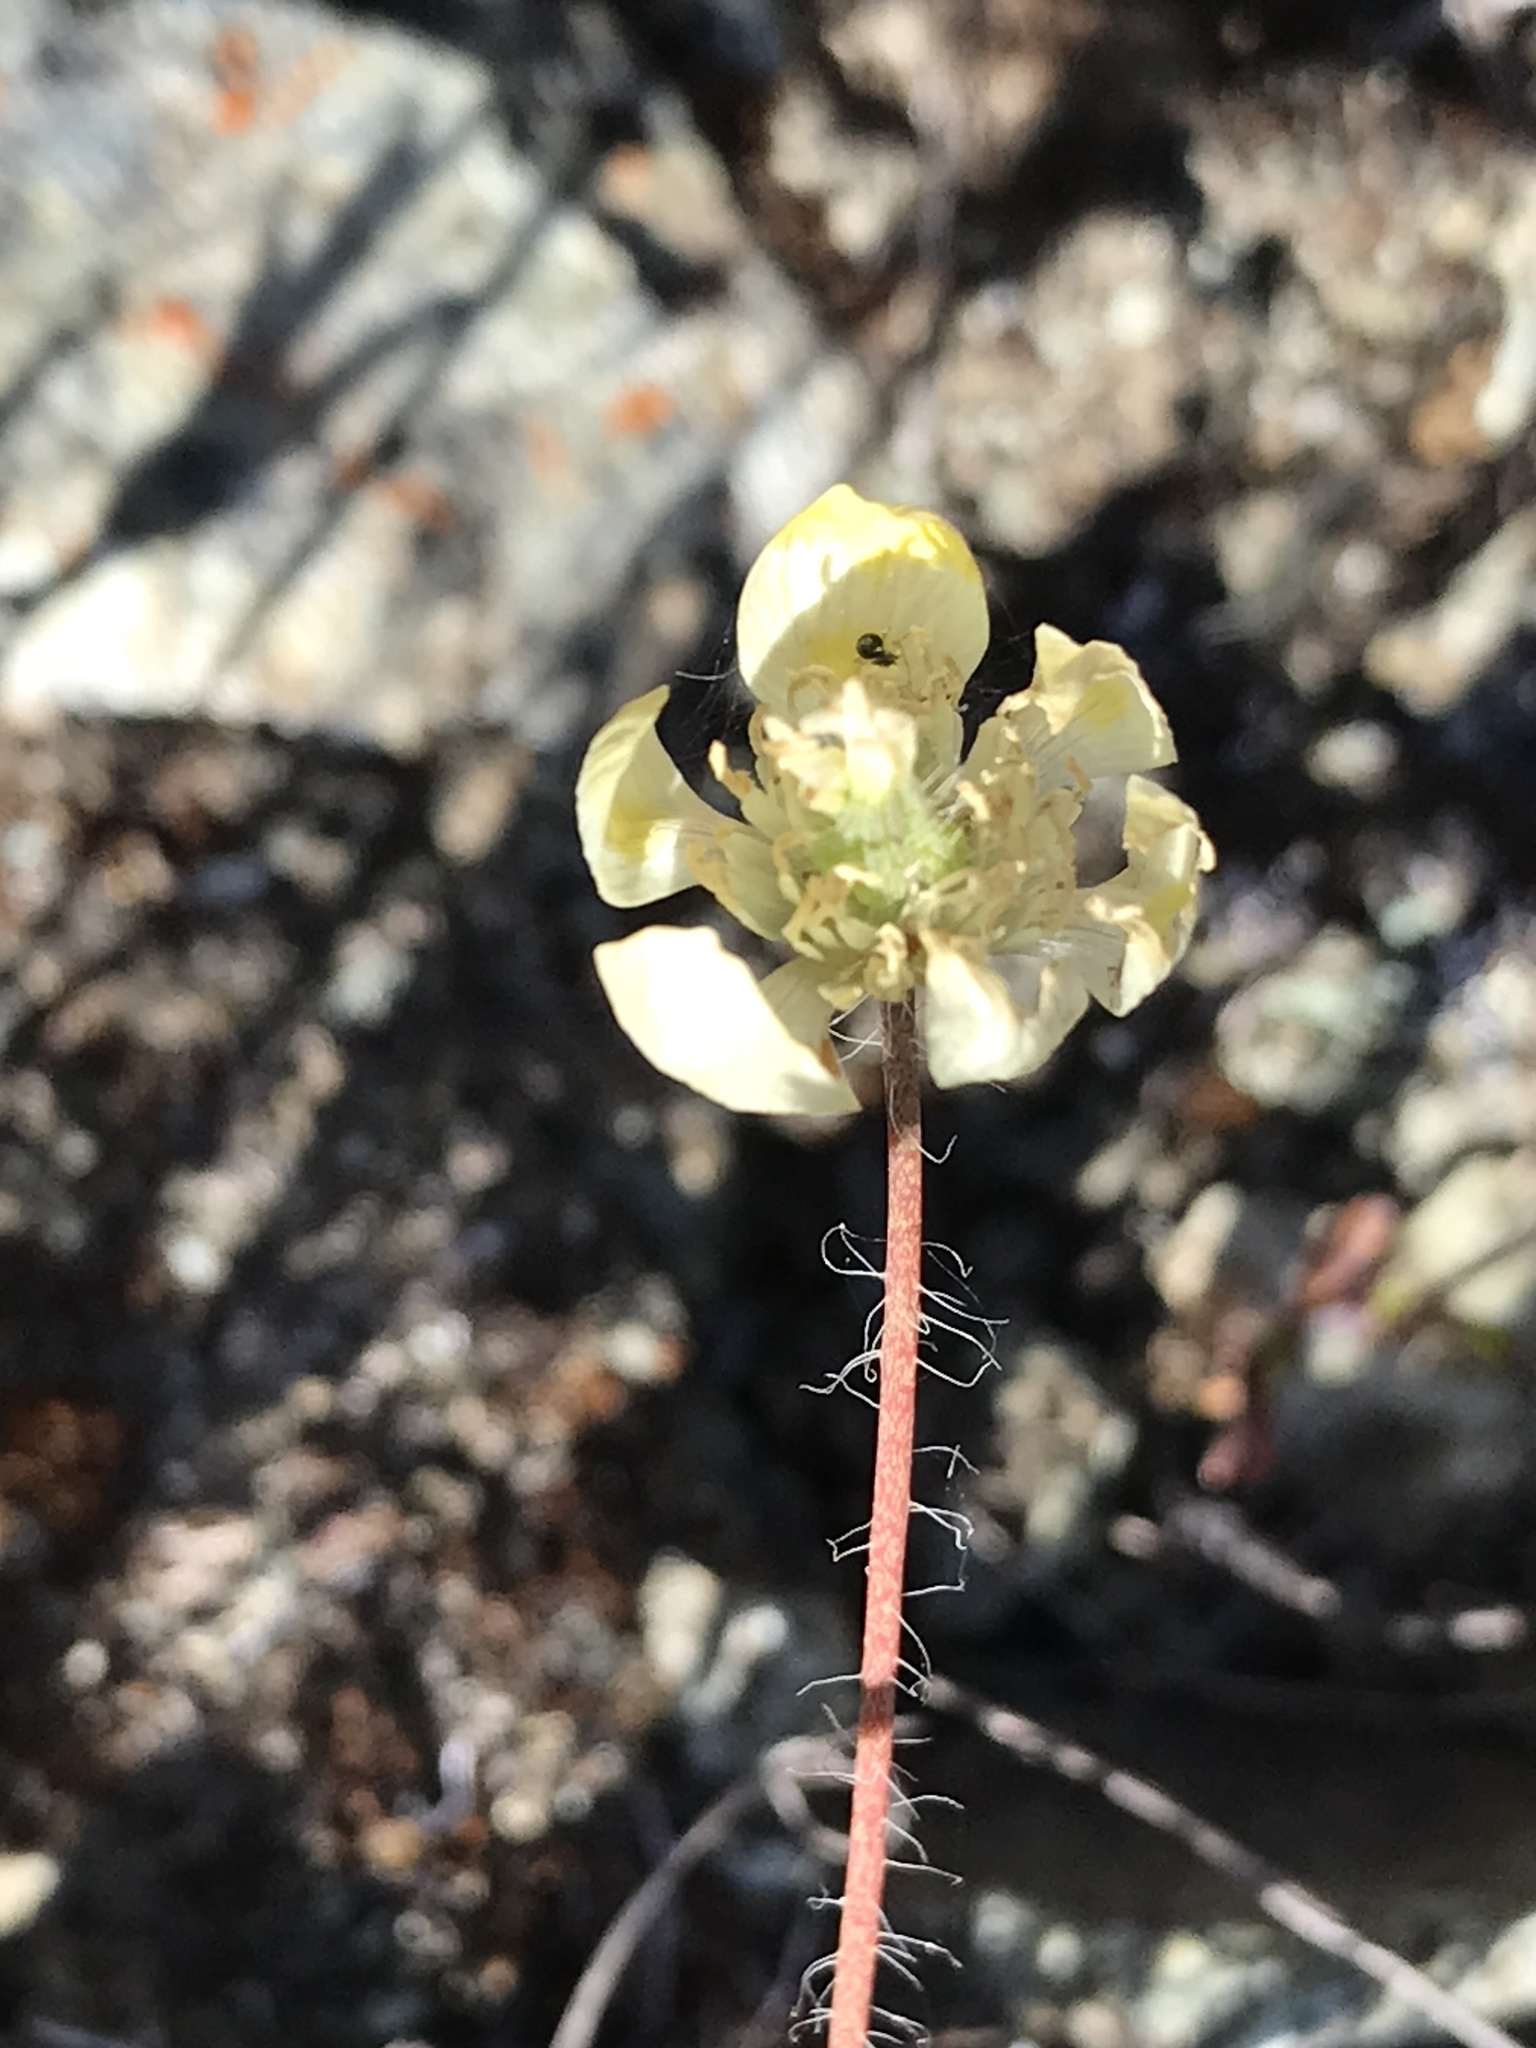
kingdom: Plantae
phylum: Tracheophyta
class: Magnoliopsida
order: Ranunculales
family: Papaveraceae
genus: Platystemon
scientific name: Platystemon californicus
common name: Cream-cups
